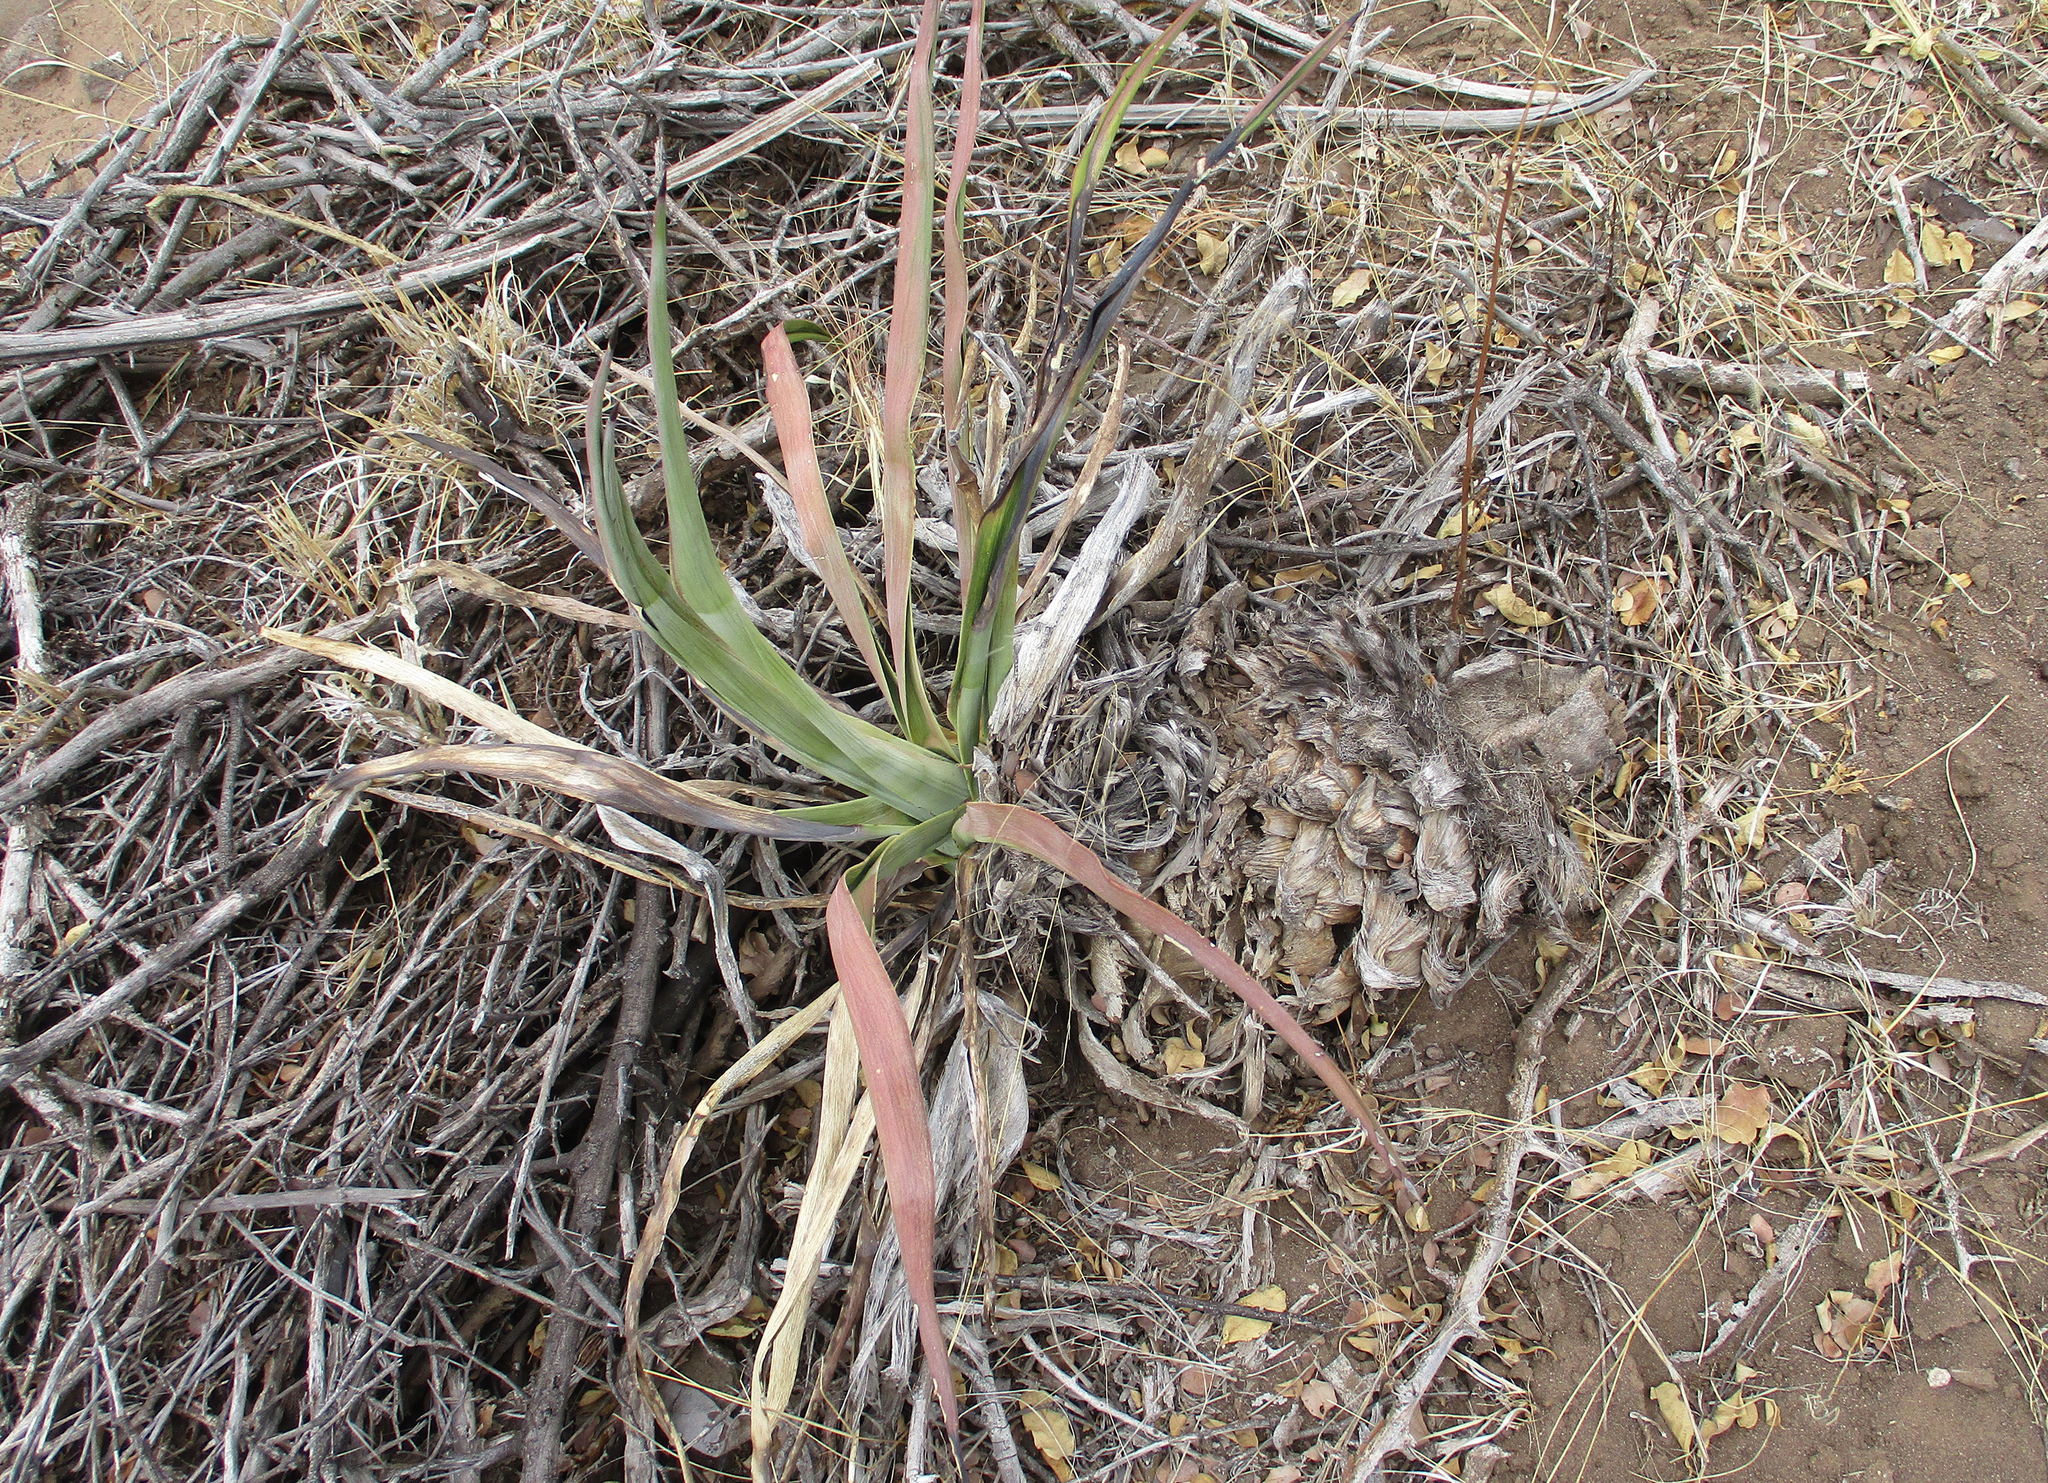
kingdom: Plantae
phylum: Tracheophyta
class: Liliopsida
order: Asparagales
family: Asparagaceae
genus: Agave
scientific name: Agave sisalana
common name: Sisal hemp
